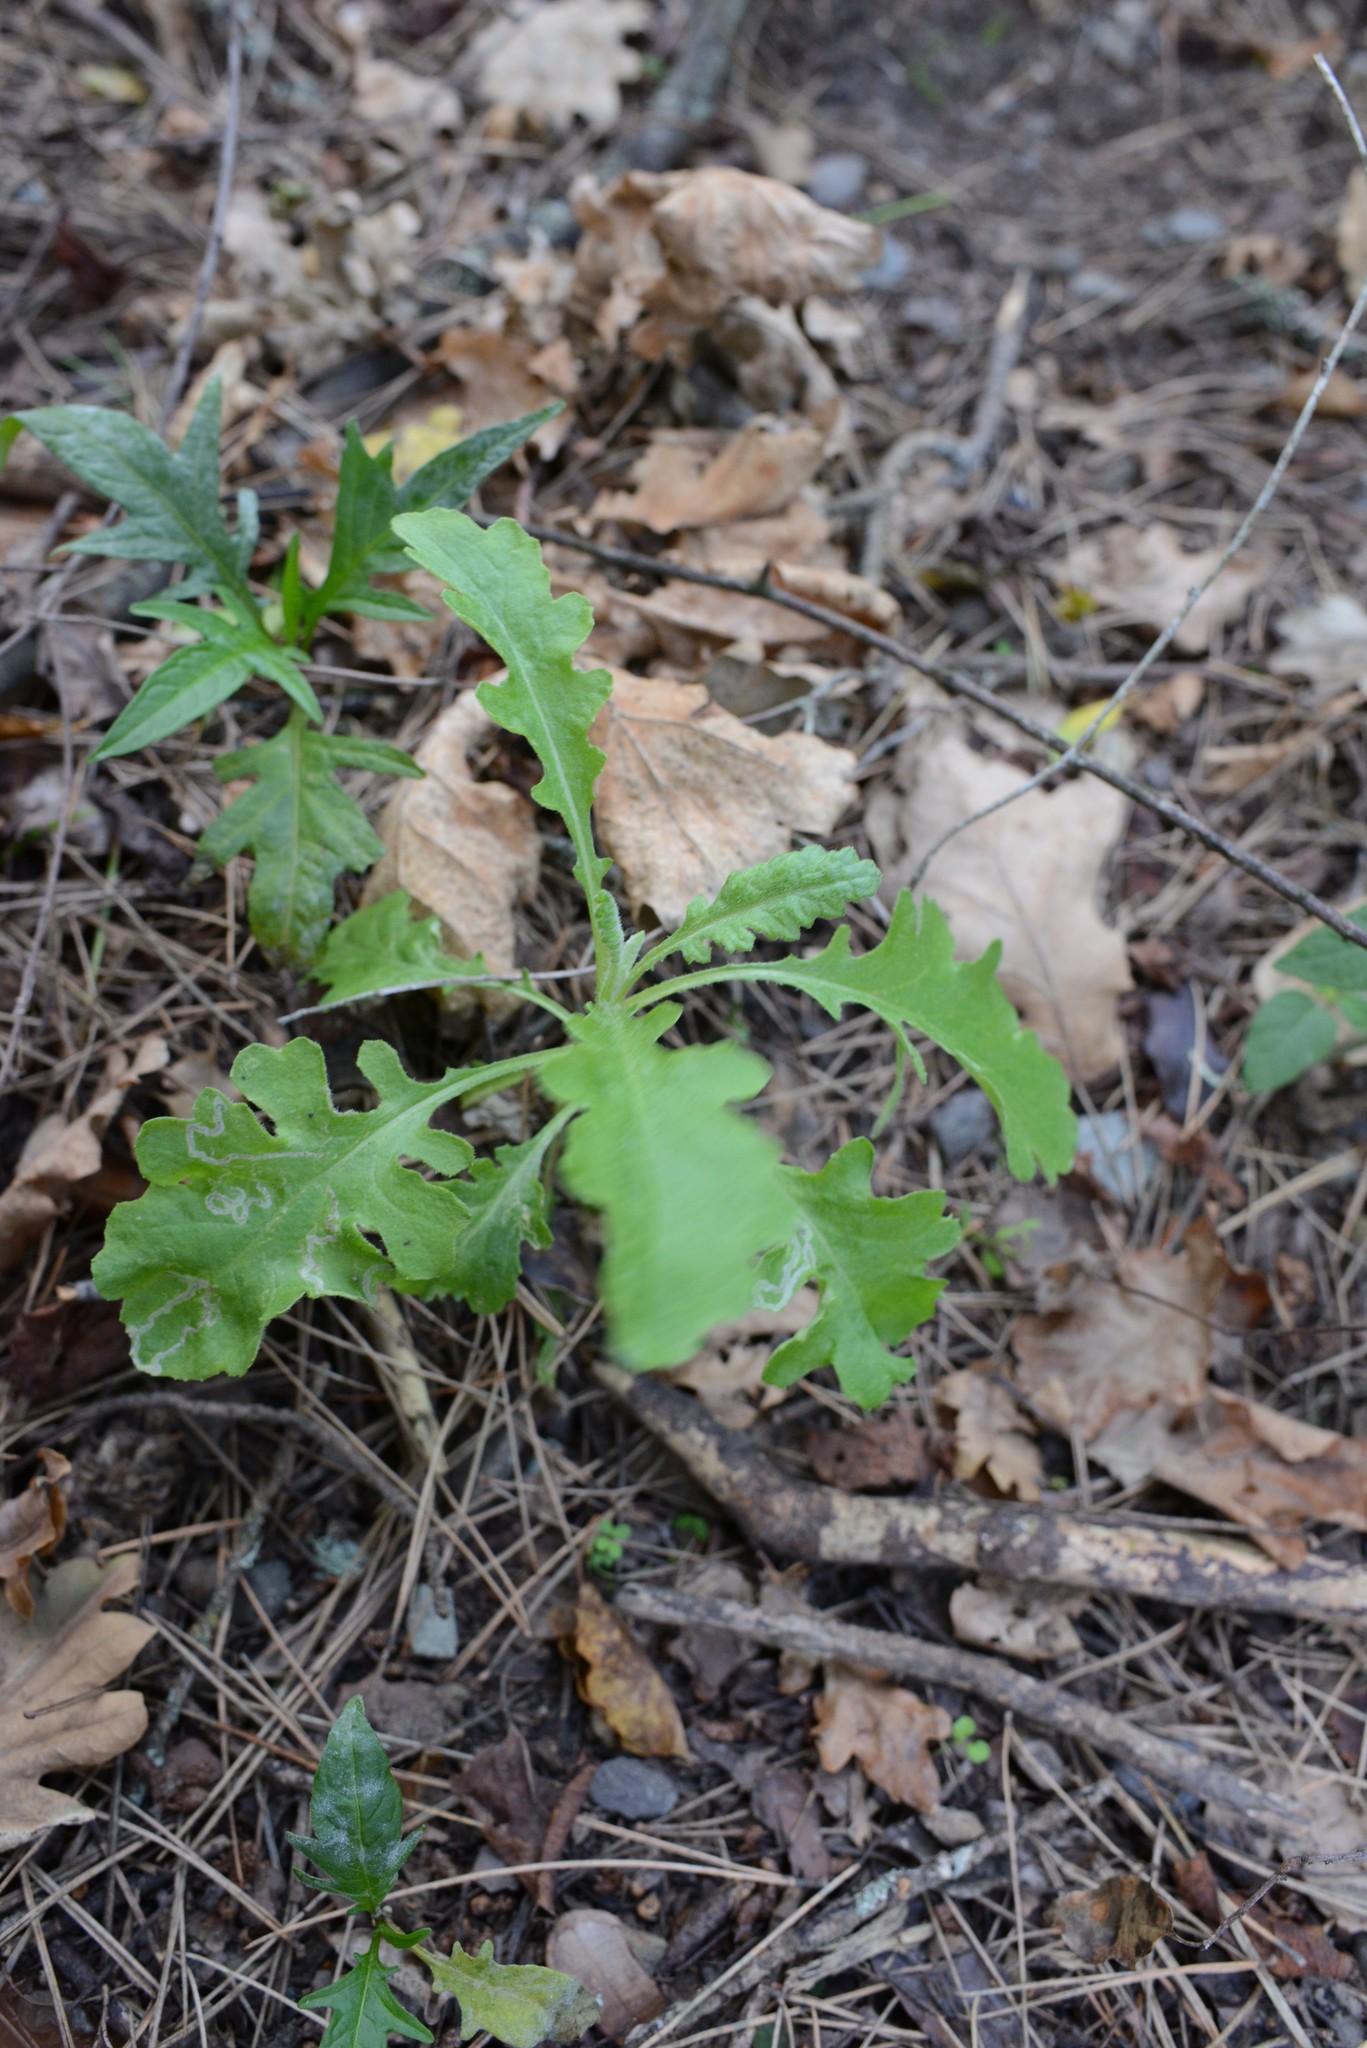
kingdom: Plantae
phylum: Tracheophyta
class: Magnoliopsida
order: Asterales
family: Asteraceae
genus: Senecio
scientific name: Senecio glomeratus
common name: Cutleaf burnweed
